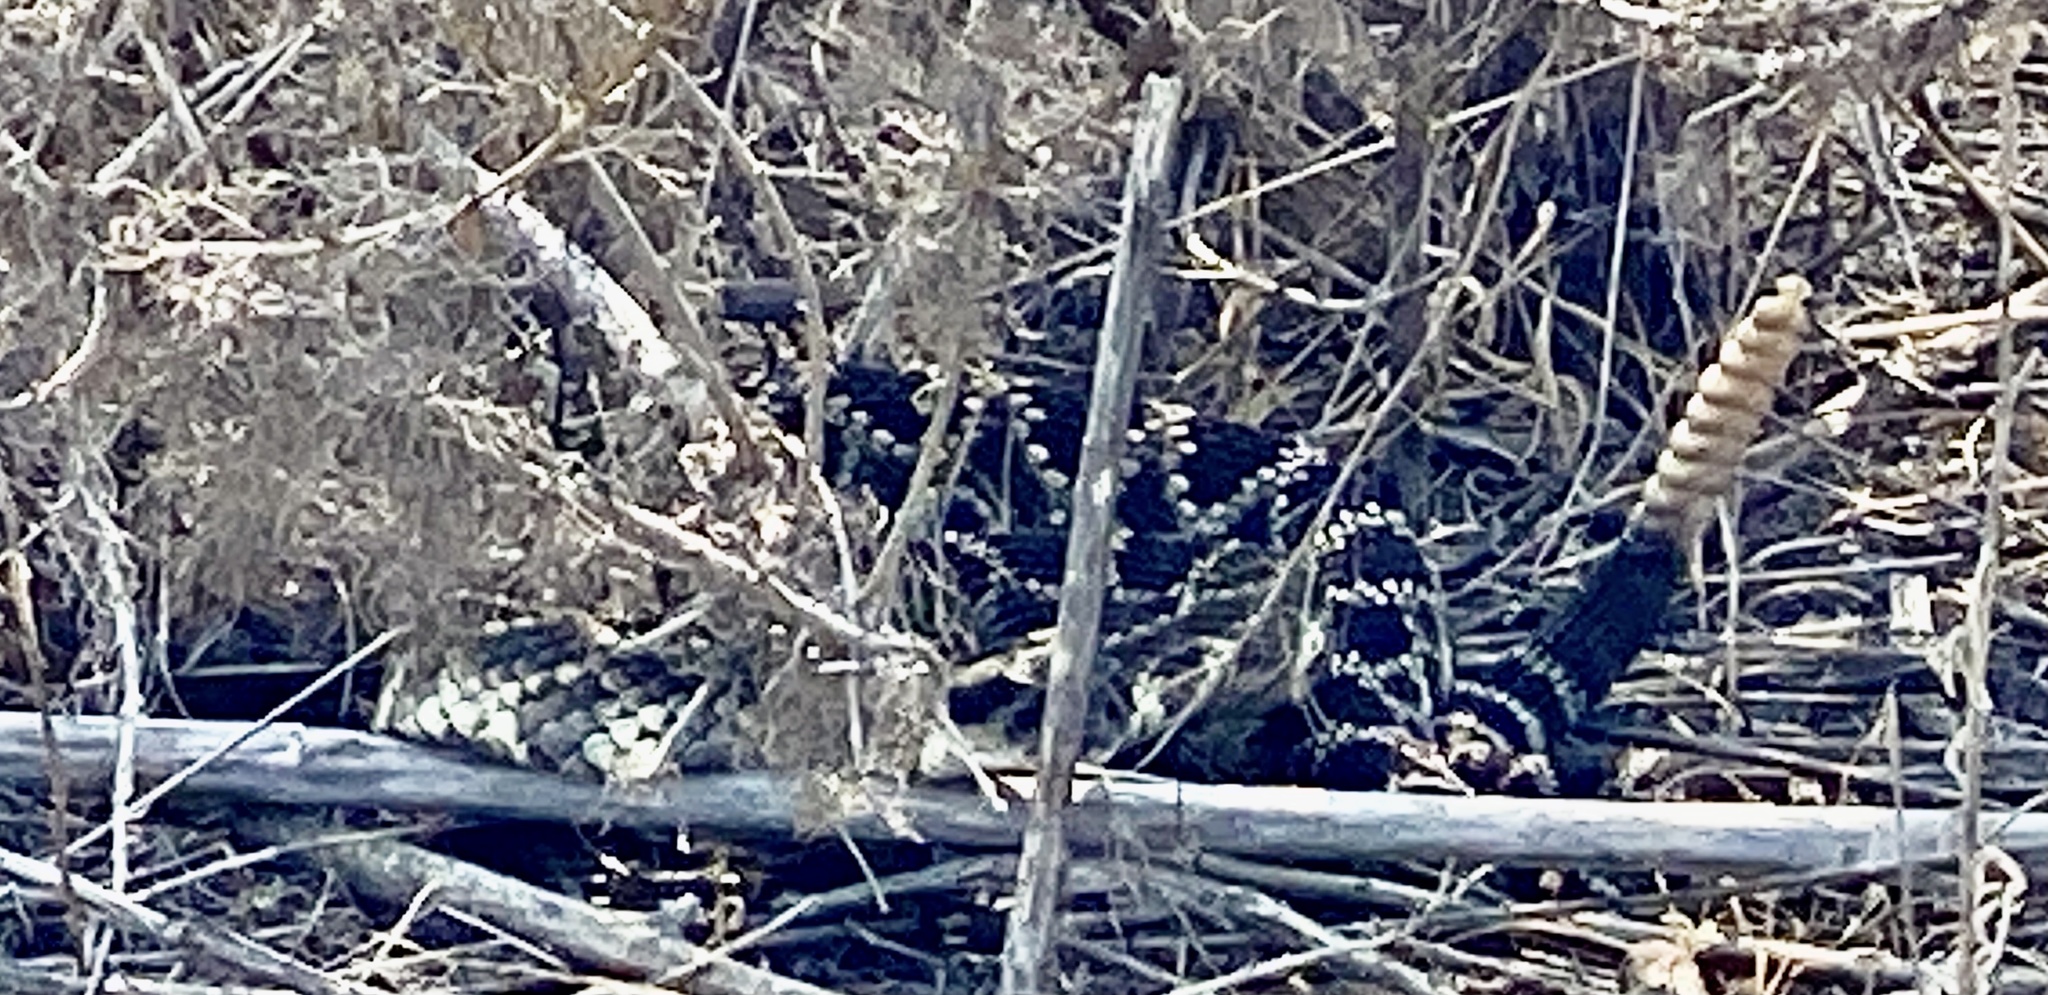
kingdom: Animalia
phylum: Chordata
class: Squamata
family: Viperidae
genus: Crotalus
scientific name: Crotalus oreganus
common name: Abyssus
